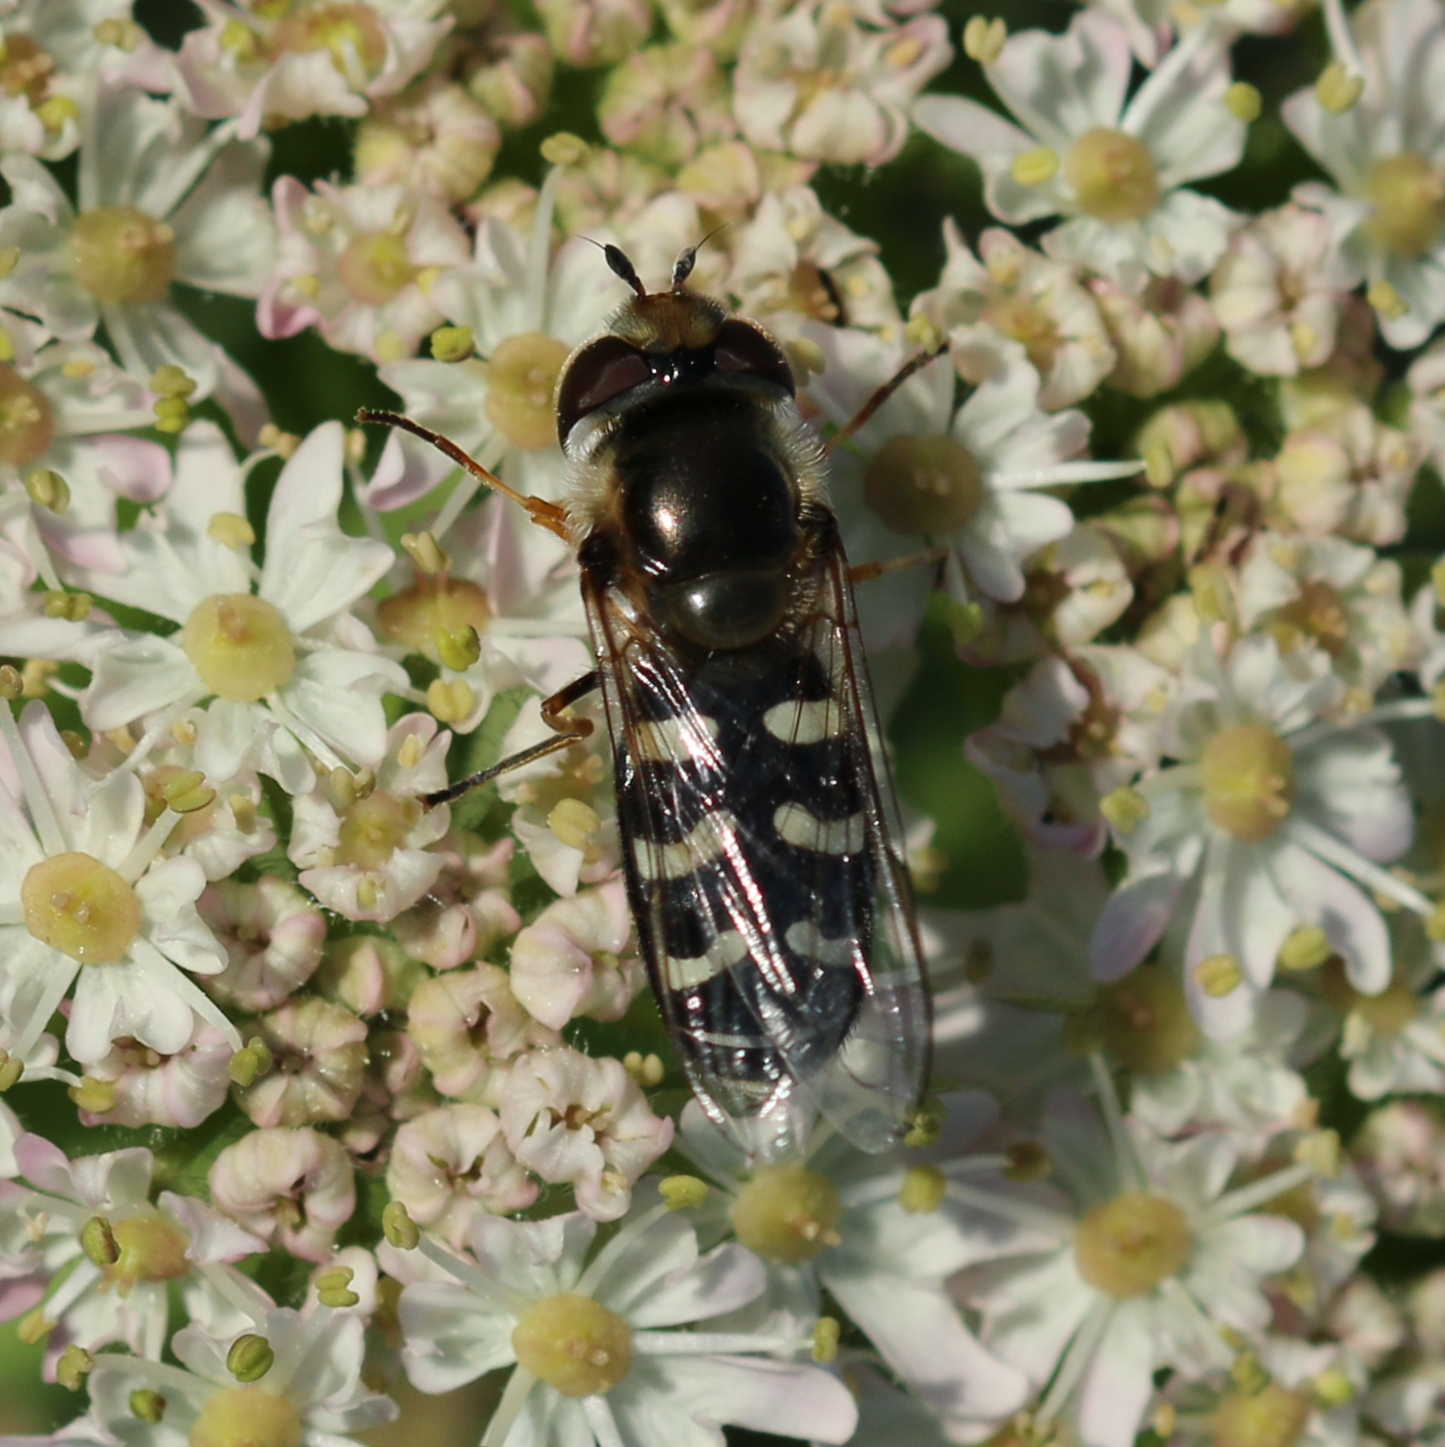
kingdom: Animalia
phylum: Arthropoda
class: Insecta
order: Diptera
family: Syrphidae
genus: Scaeva
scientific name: Scaeva pyrastri
